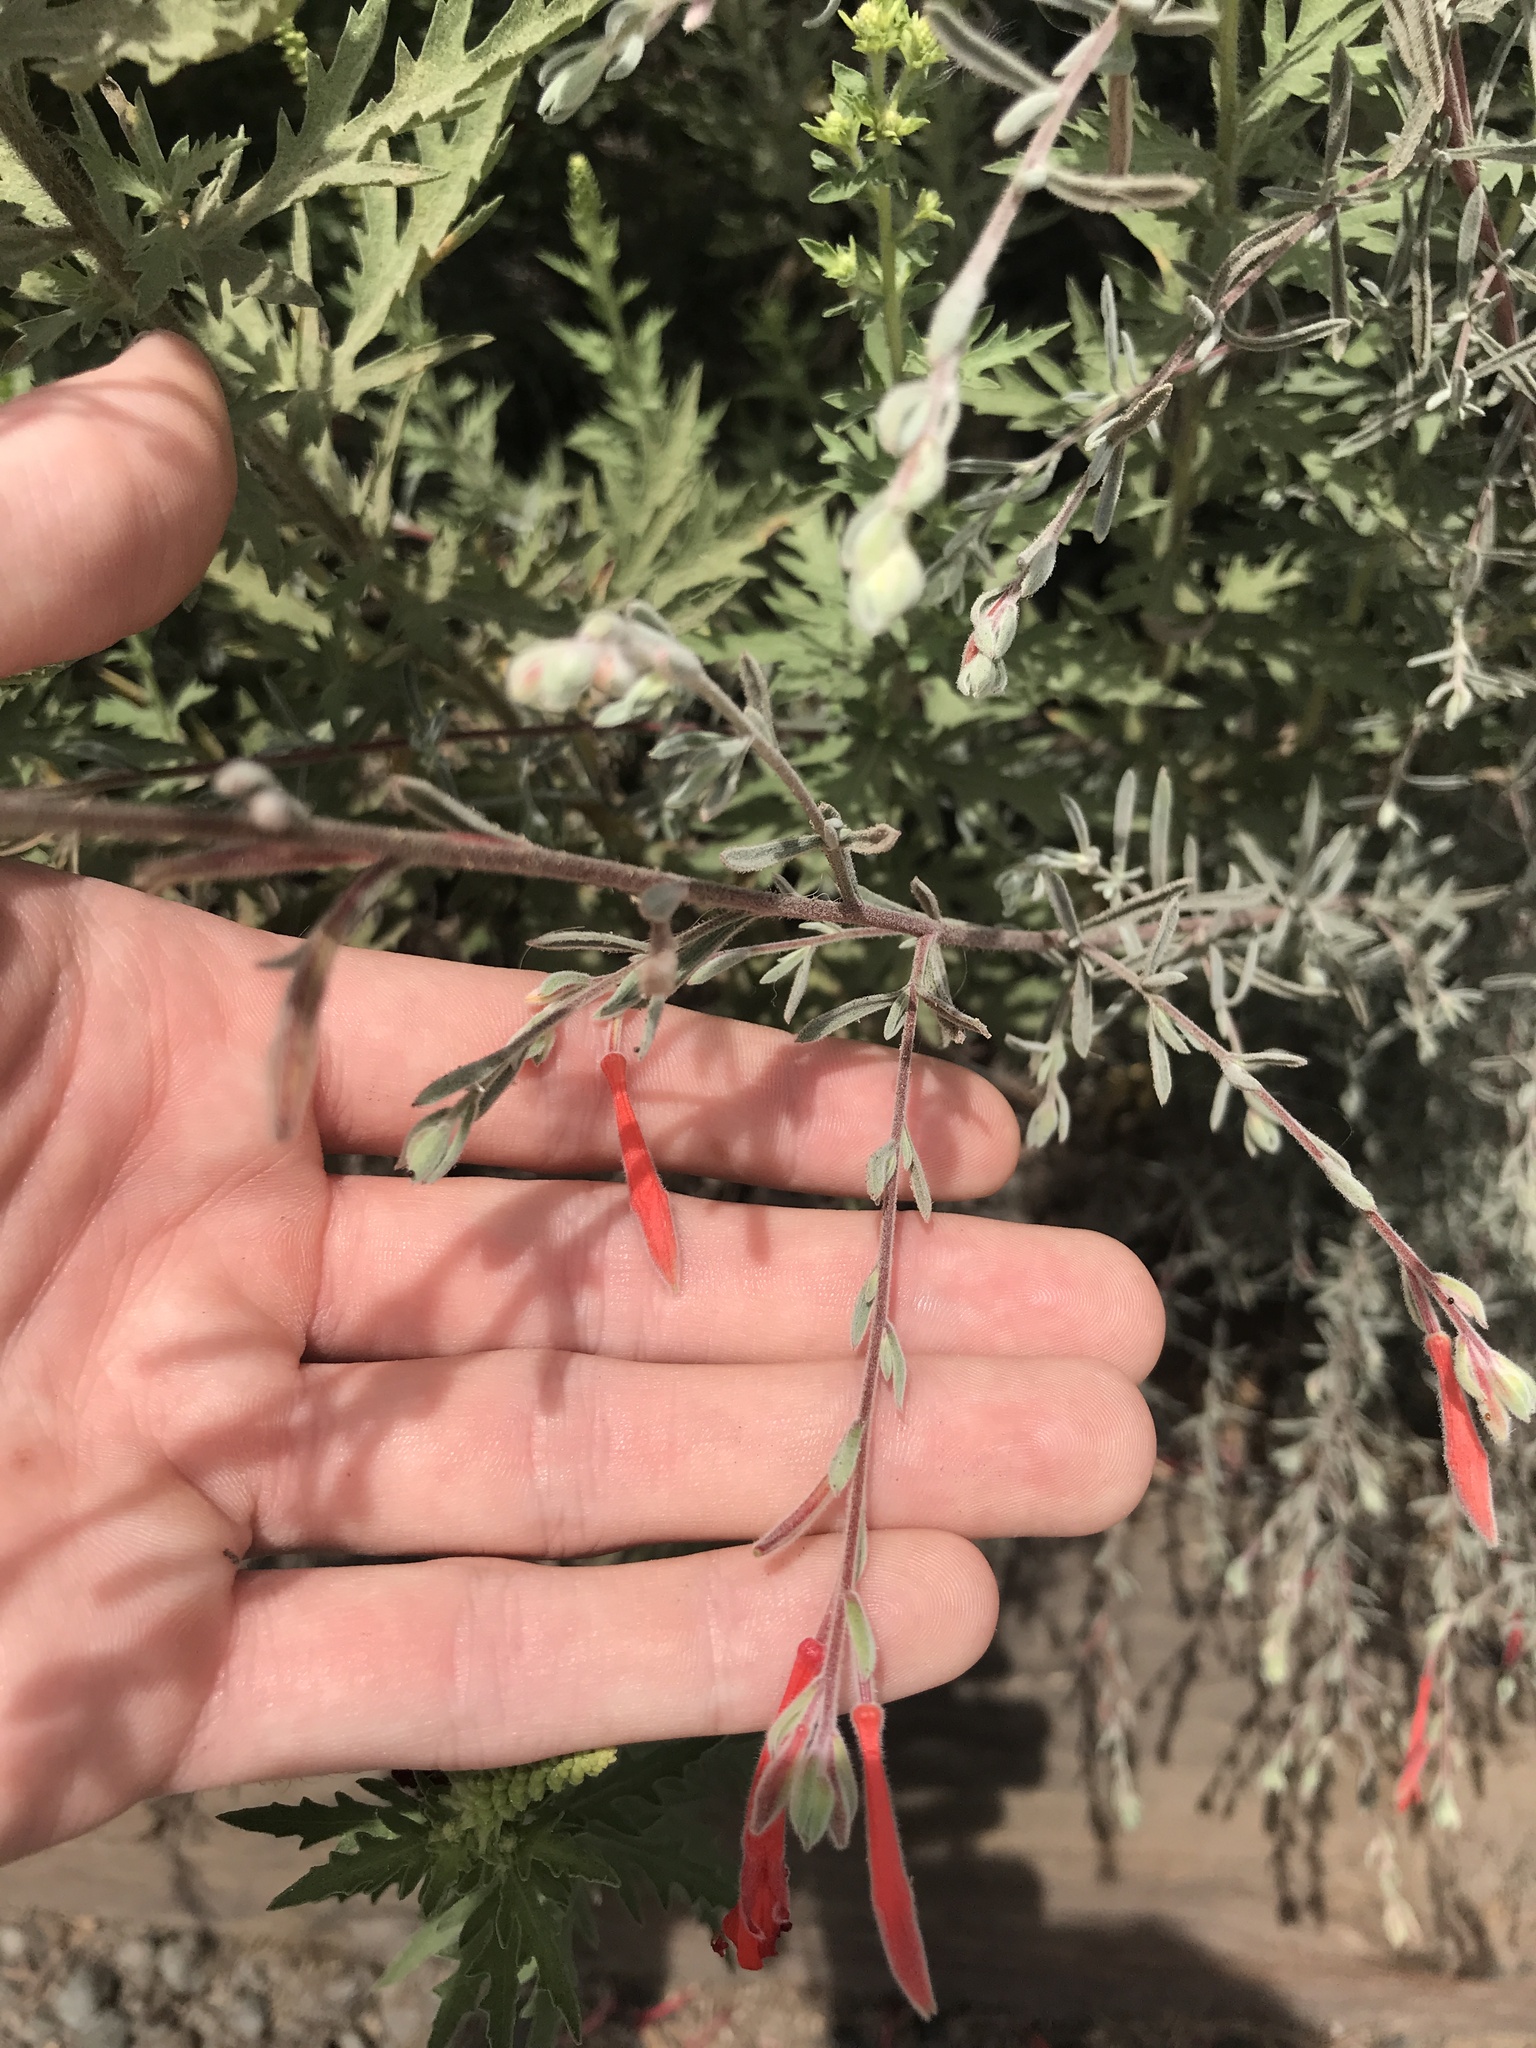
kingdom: Plantae
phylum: Tracheophyta
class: Magnoliopsida
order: Myrtales
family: Onagraceae
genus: Epilobium
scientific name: Epilobium canum
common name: California-fuchsia
